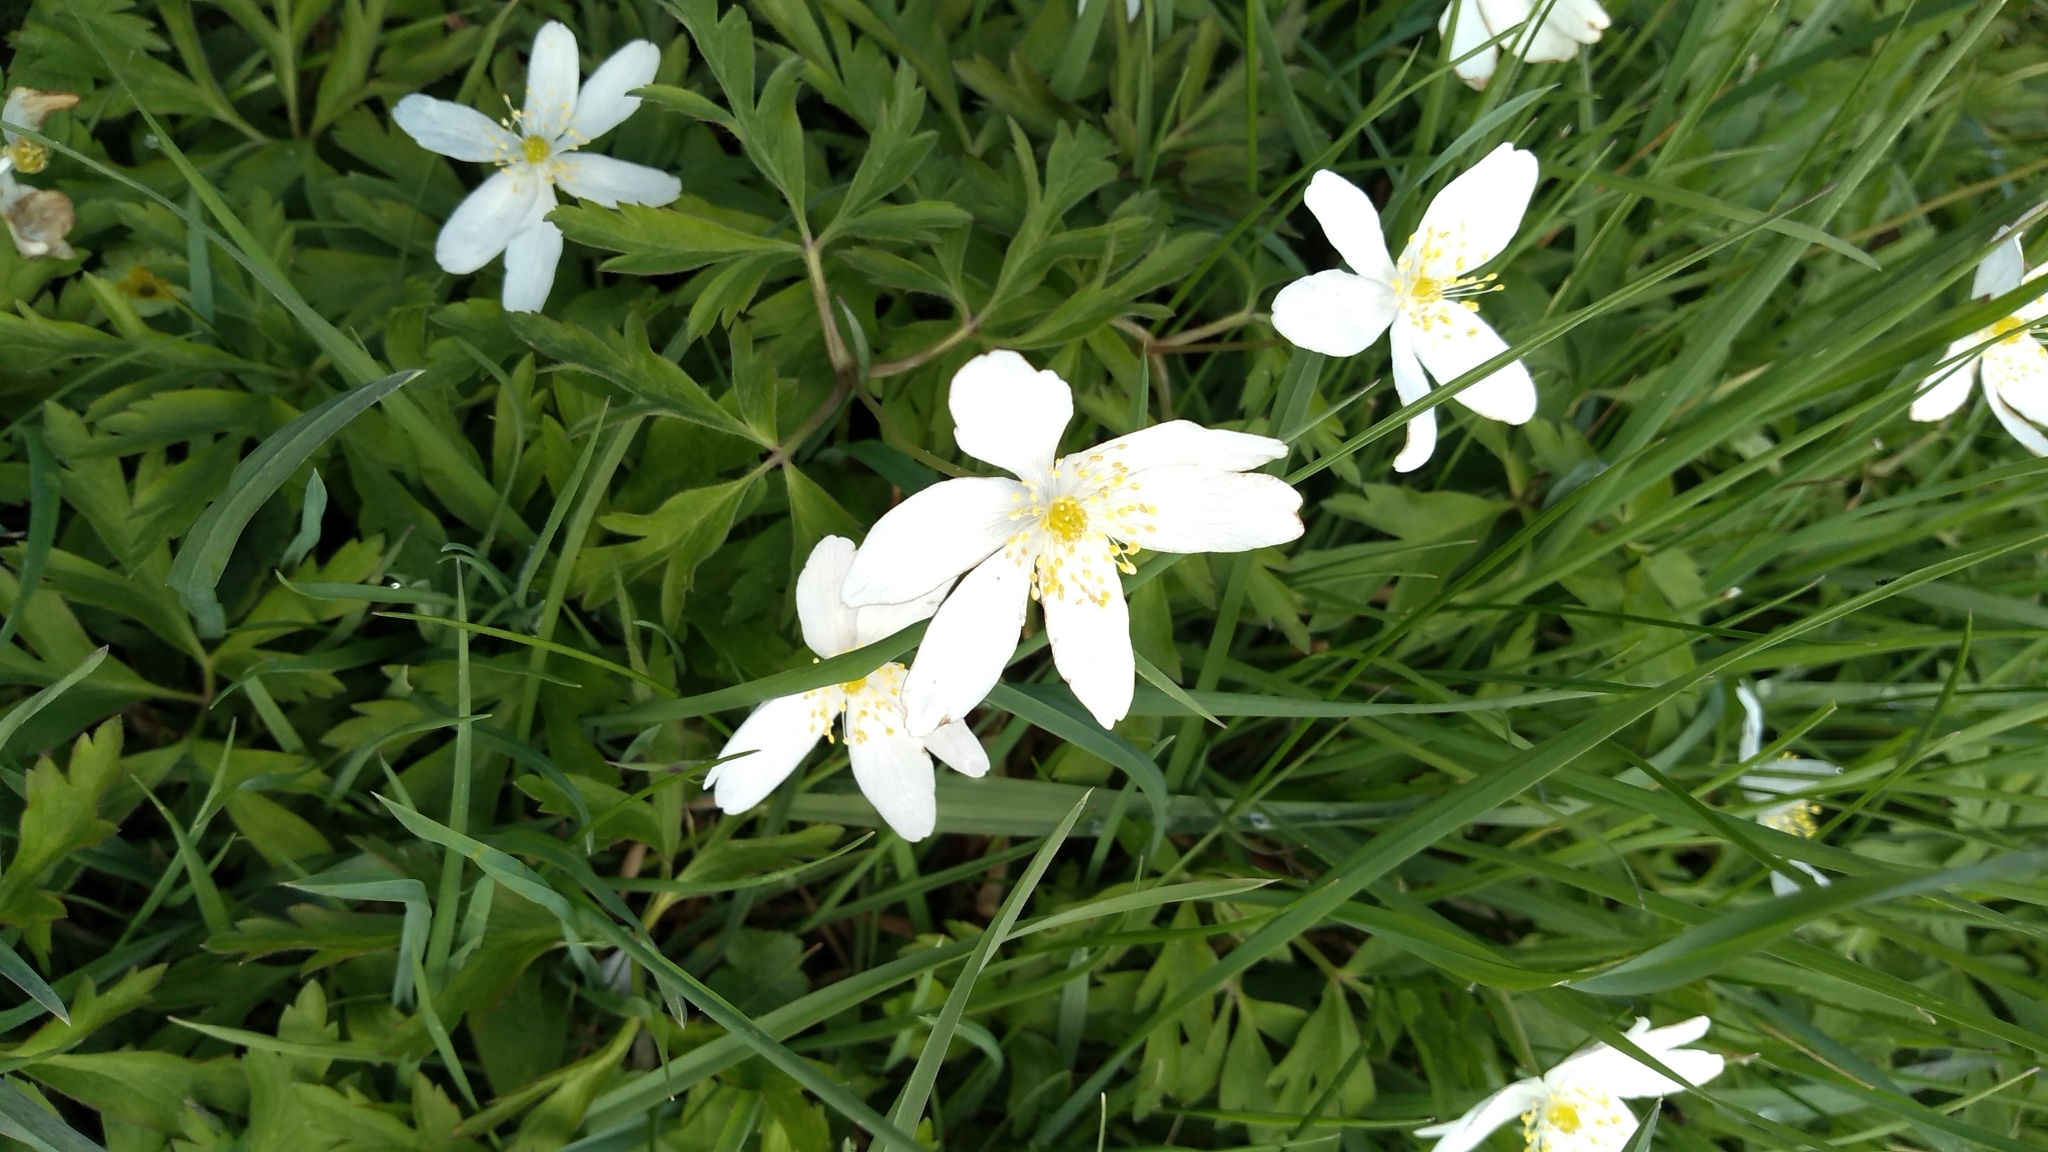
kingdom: Plantae
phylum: Tracheophyta
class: Magnoliopsida
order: Ranunculales
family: Ranunculaceae
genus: Anemone
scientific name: Anemone nemorosa
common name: Wood anemone
